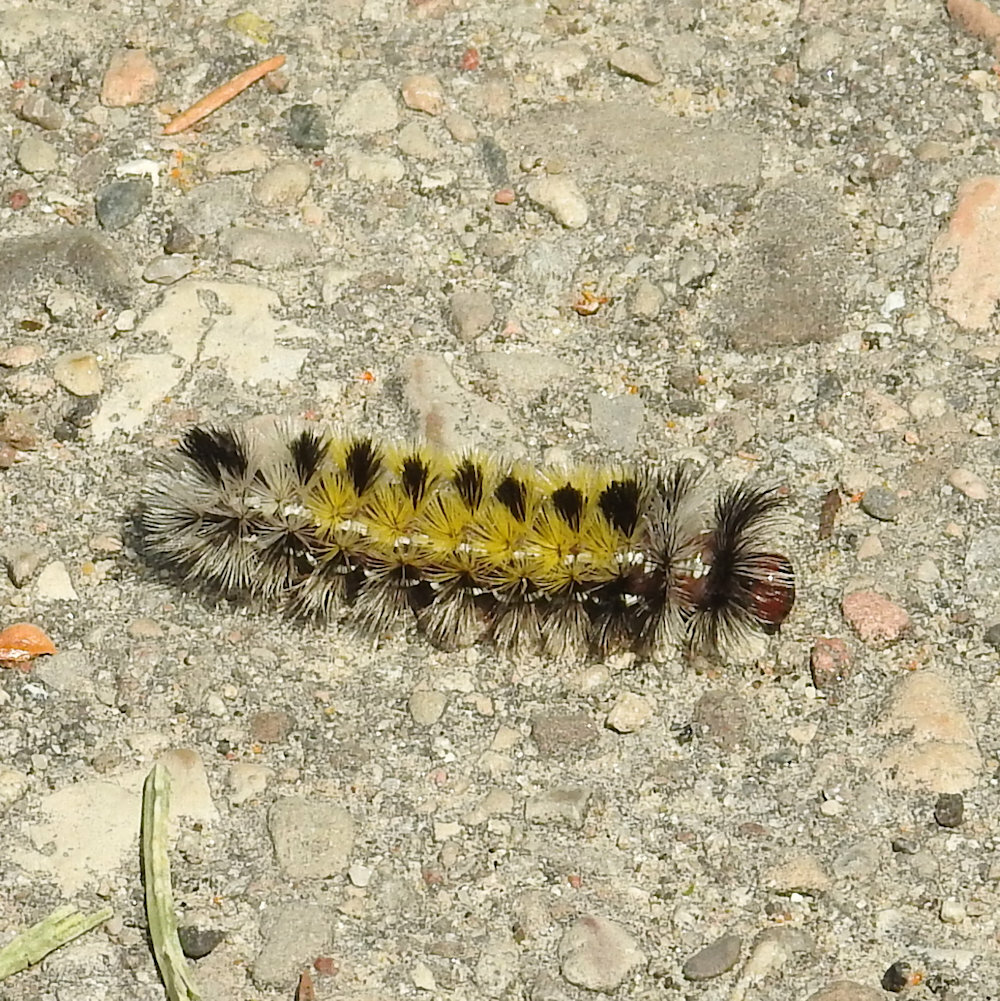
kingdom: Animalia
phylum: Arthropoda
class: Insecta
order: Lepidoptera
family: Erebidae
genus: Ctenucha
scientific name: Ctenucha virginica
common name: Virginia ctenucha moth
